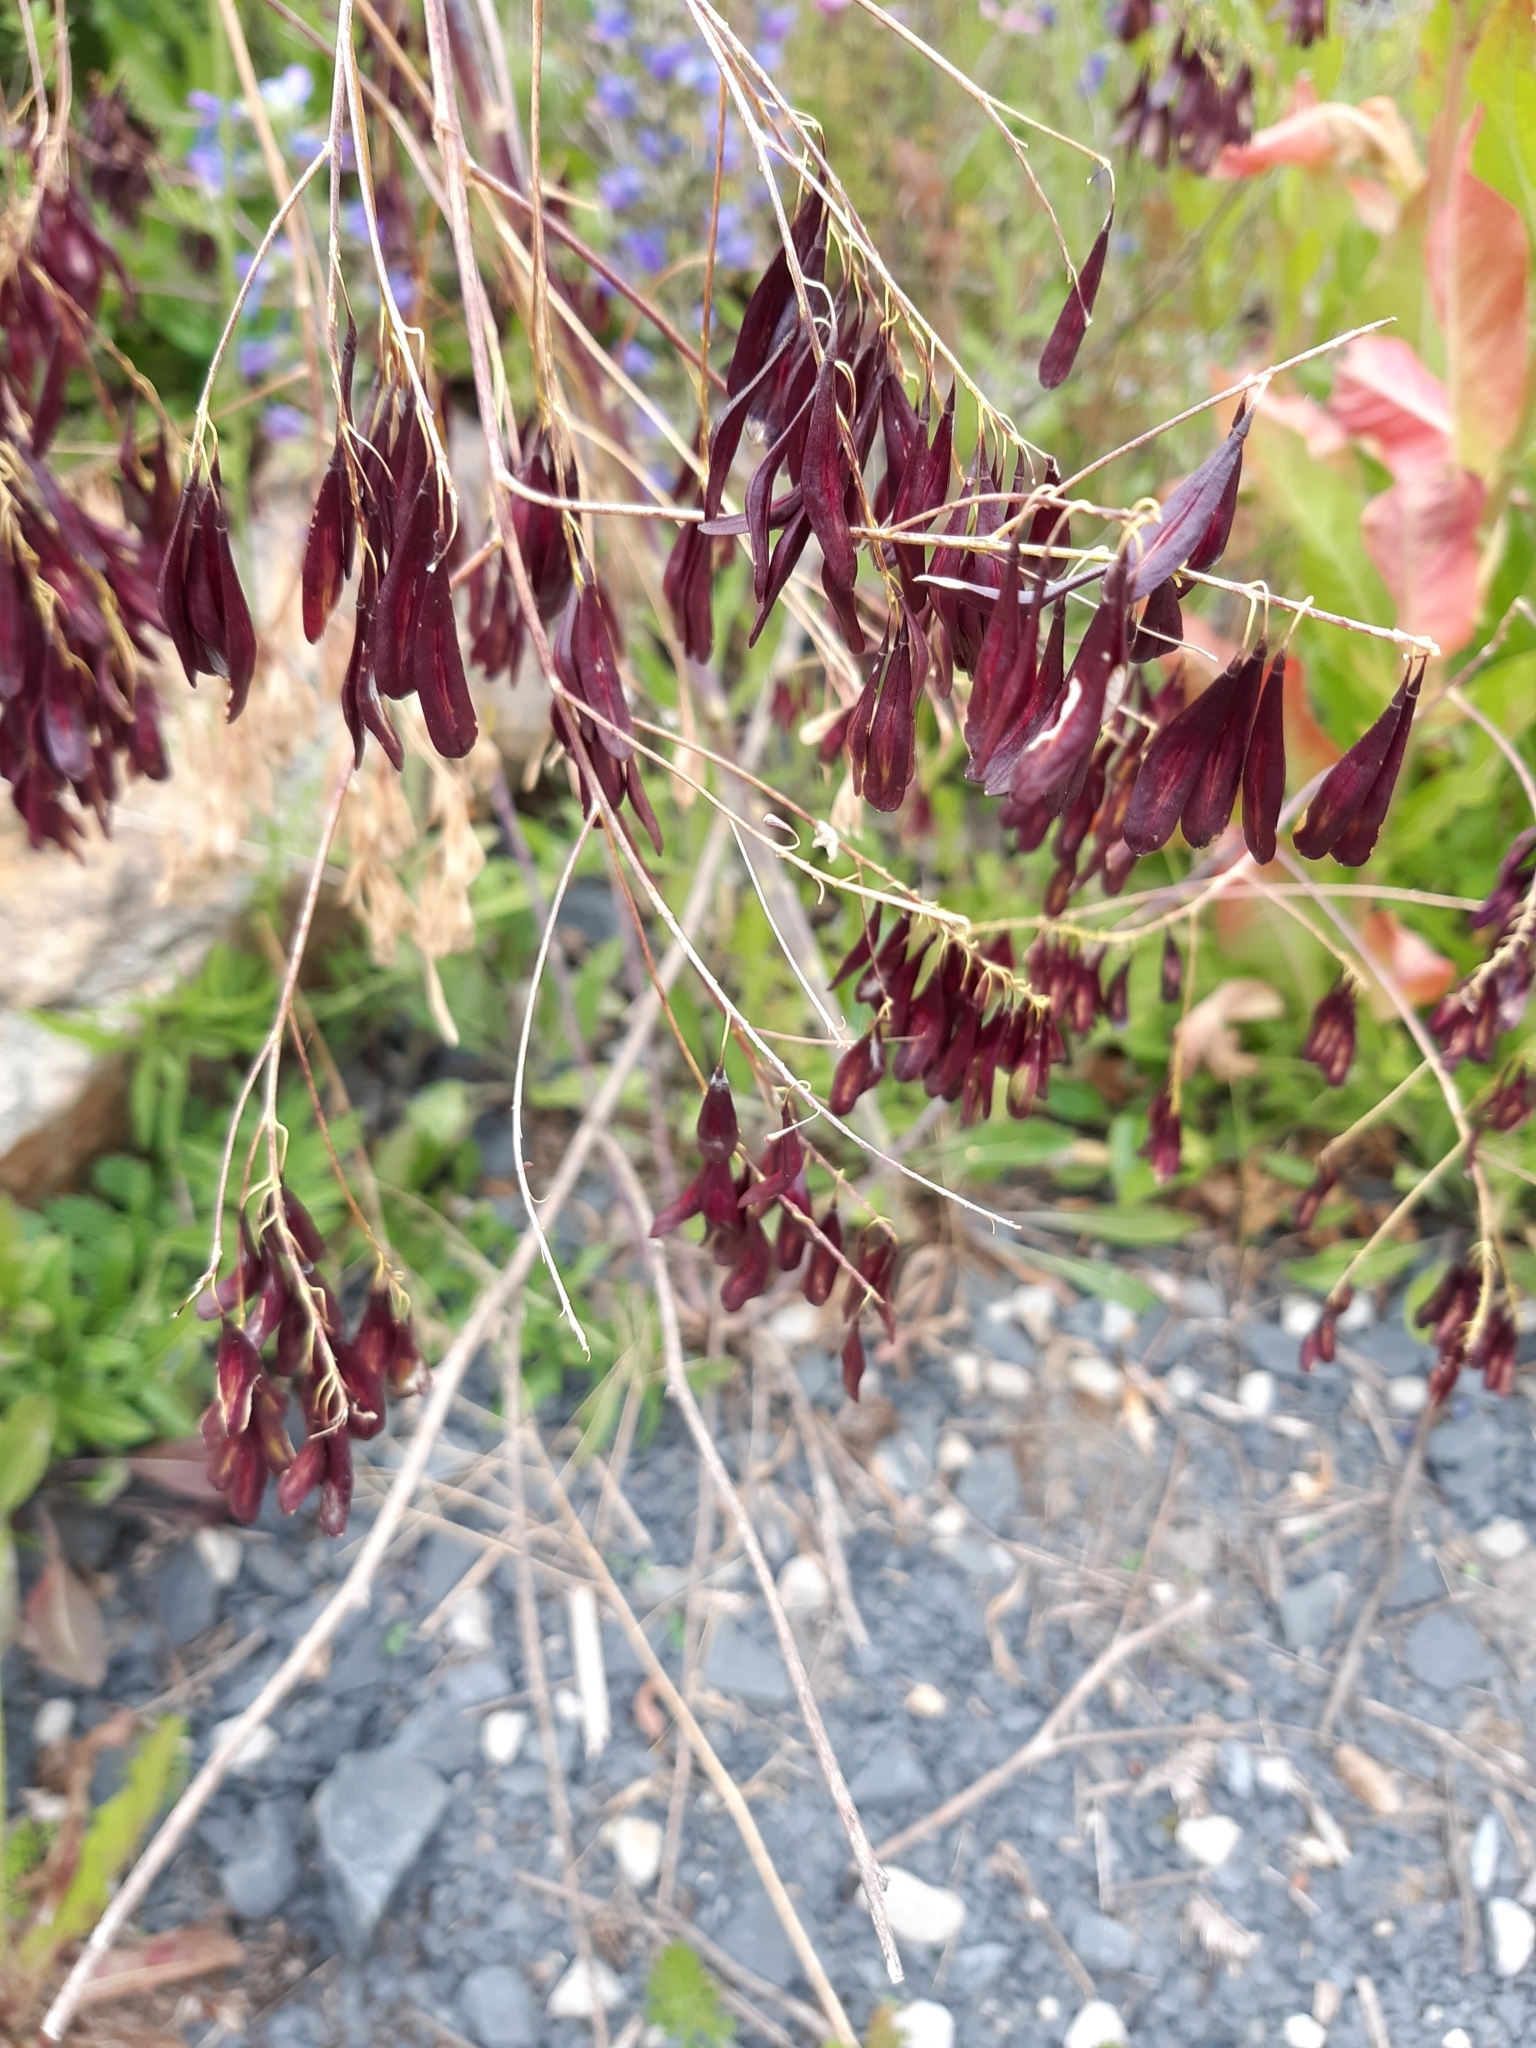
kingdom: Plantae
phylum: Tracheophyta
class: Magnoliopsida
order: Brassicales
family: Brassicaceae
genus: Isatis
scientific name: Isatis tinctoria
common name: Woad
